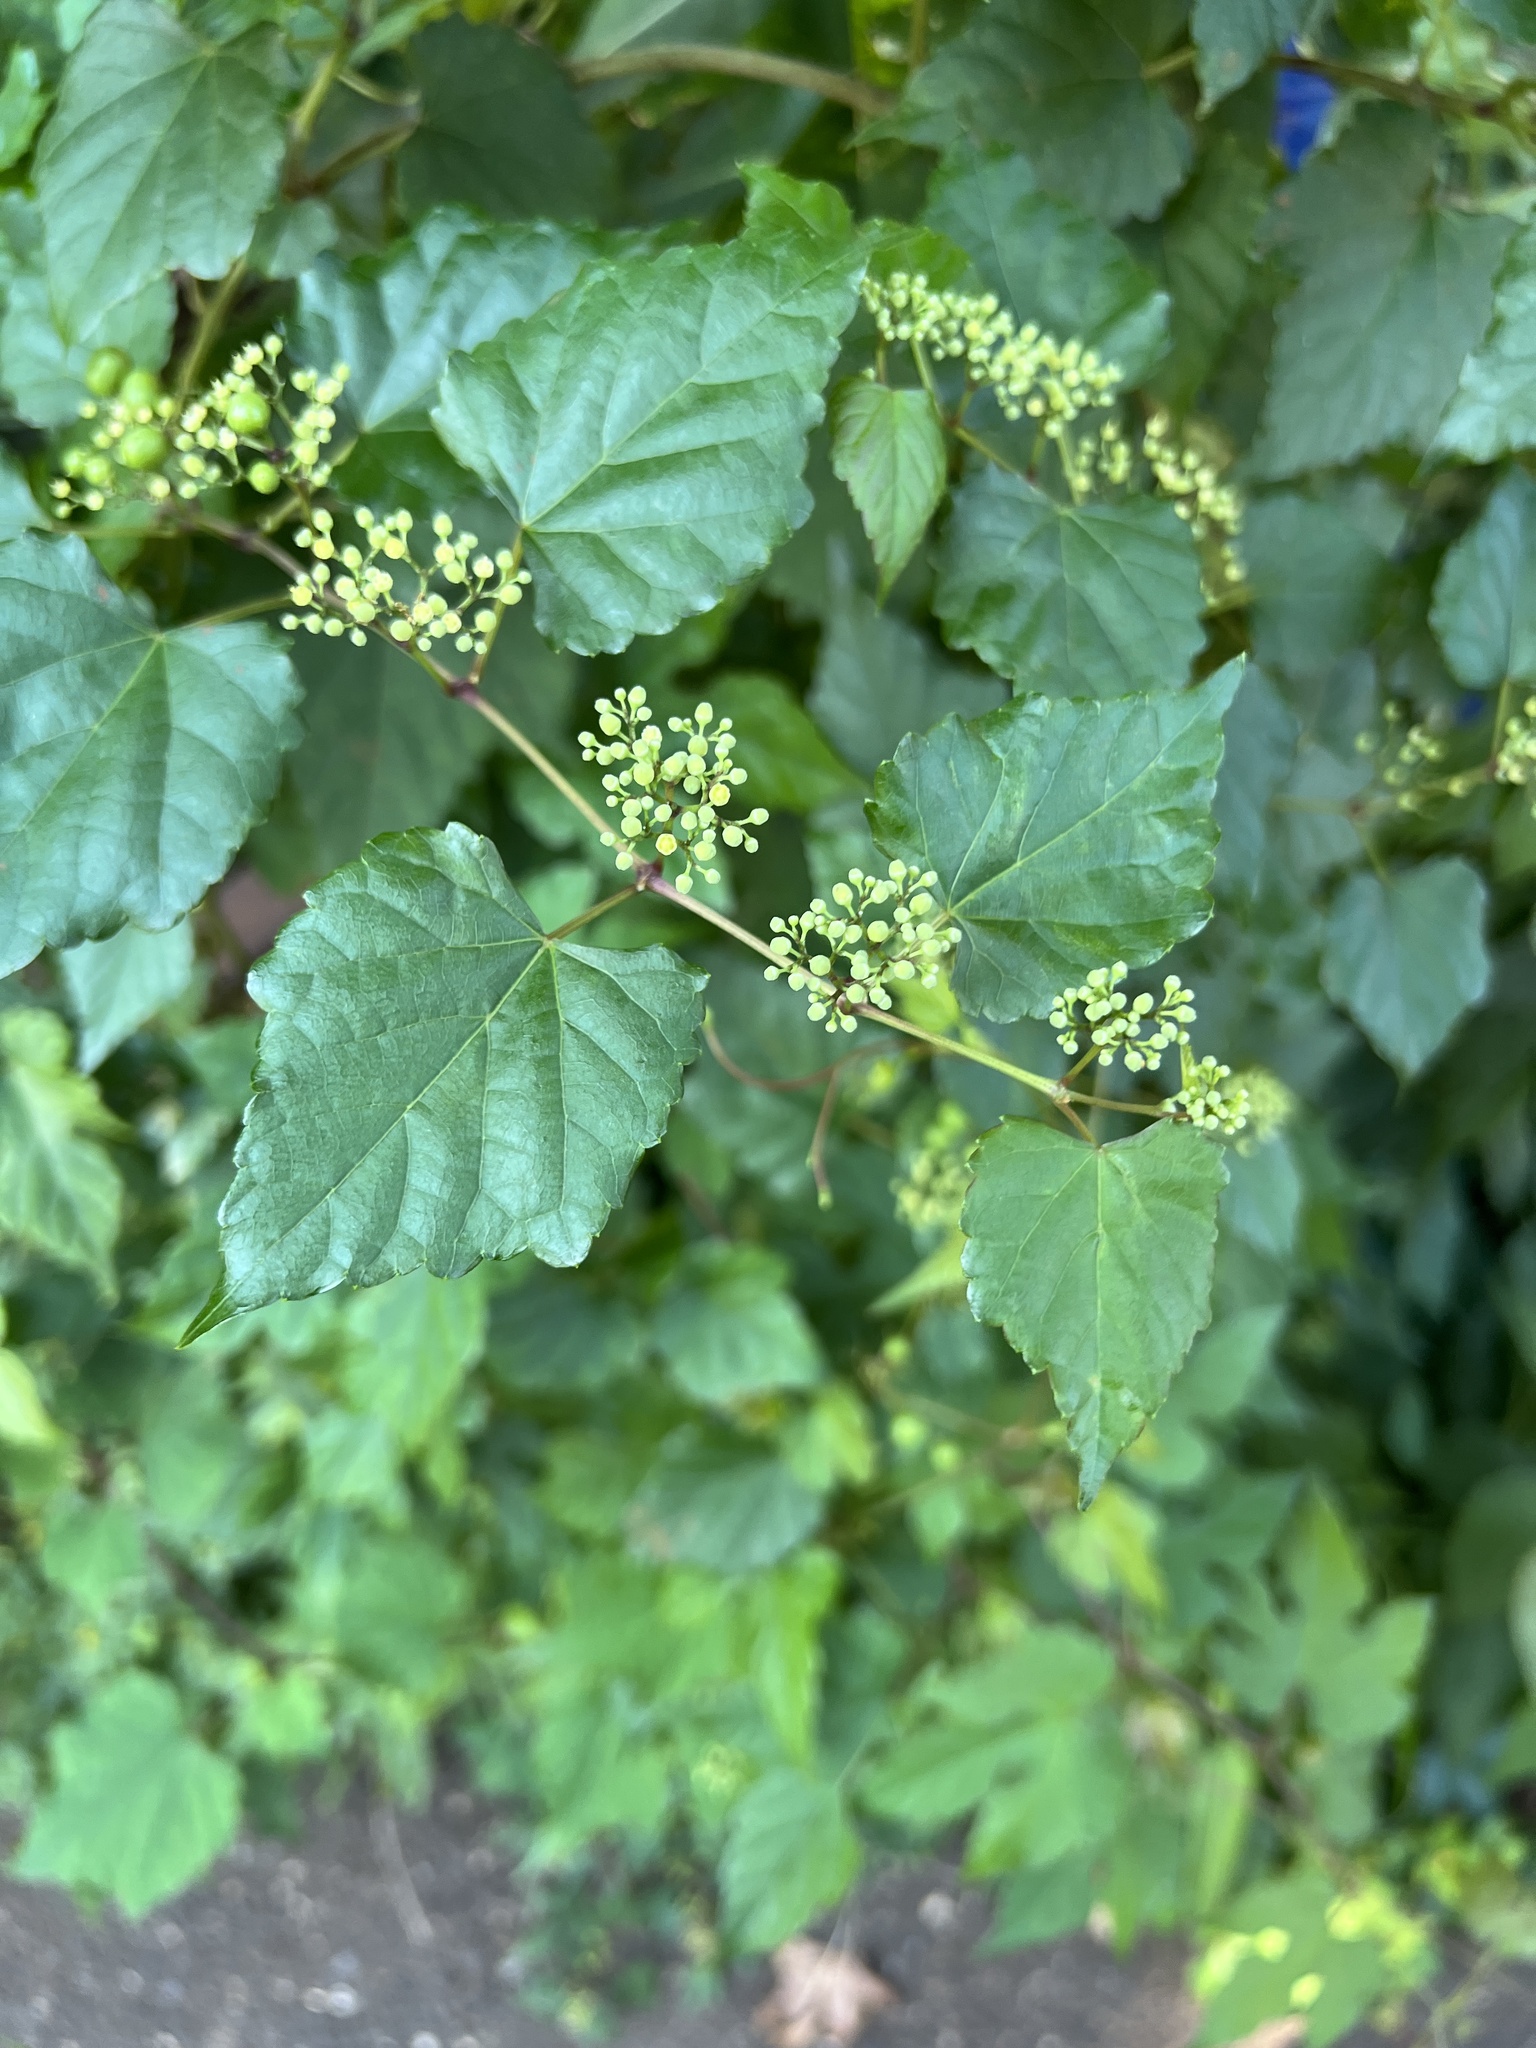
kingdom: Plantae
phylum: Tracheophyta
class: Magnoliopsida
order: Vitales
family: Vitaceae
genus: Ampelopsis
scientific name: Ampelopsis glandulosa
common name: Amur peppervine
